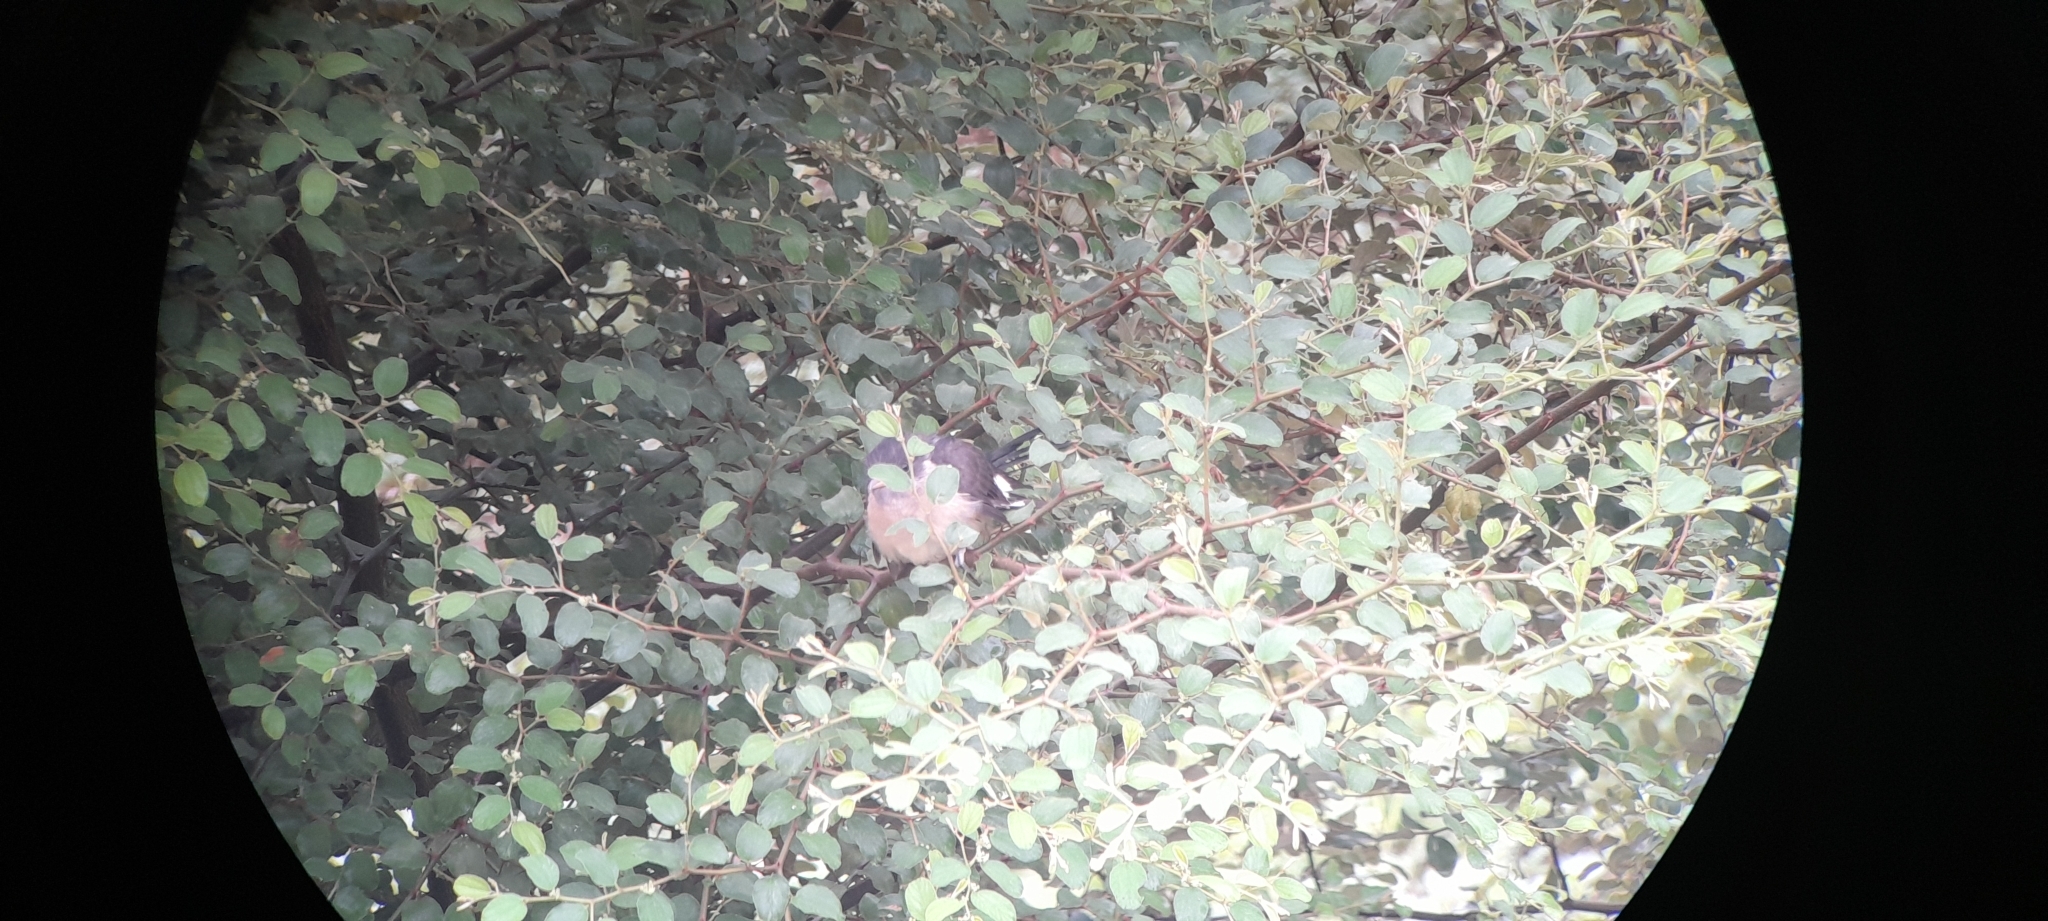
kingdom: Animalia
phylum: Chordata
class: Aves
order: Cuculiformes
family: Cuculidae
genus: Clamator
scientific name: Clamator jacobinus
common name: Jacobin cuckoo
